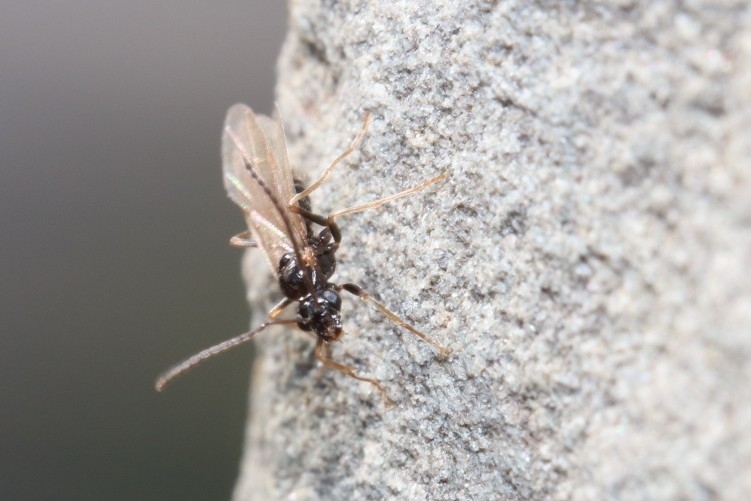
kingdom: Animalia
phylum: Arthropoda
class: Insecta
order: Hymenoptera
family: Formicidae
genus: Prenolepis
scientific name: Prenolepis imparis
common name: Small honey ant
